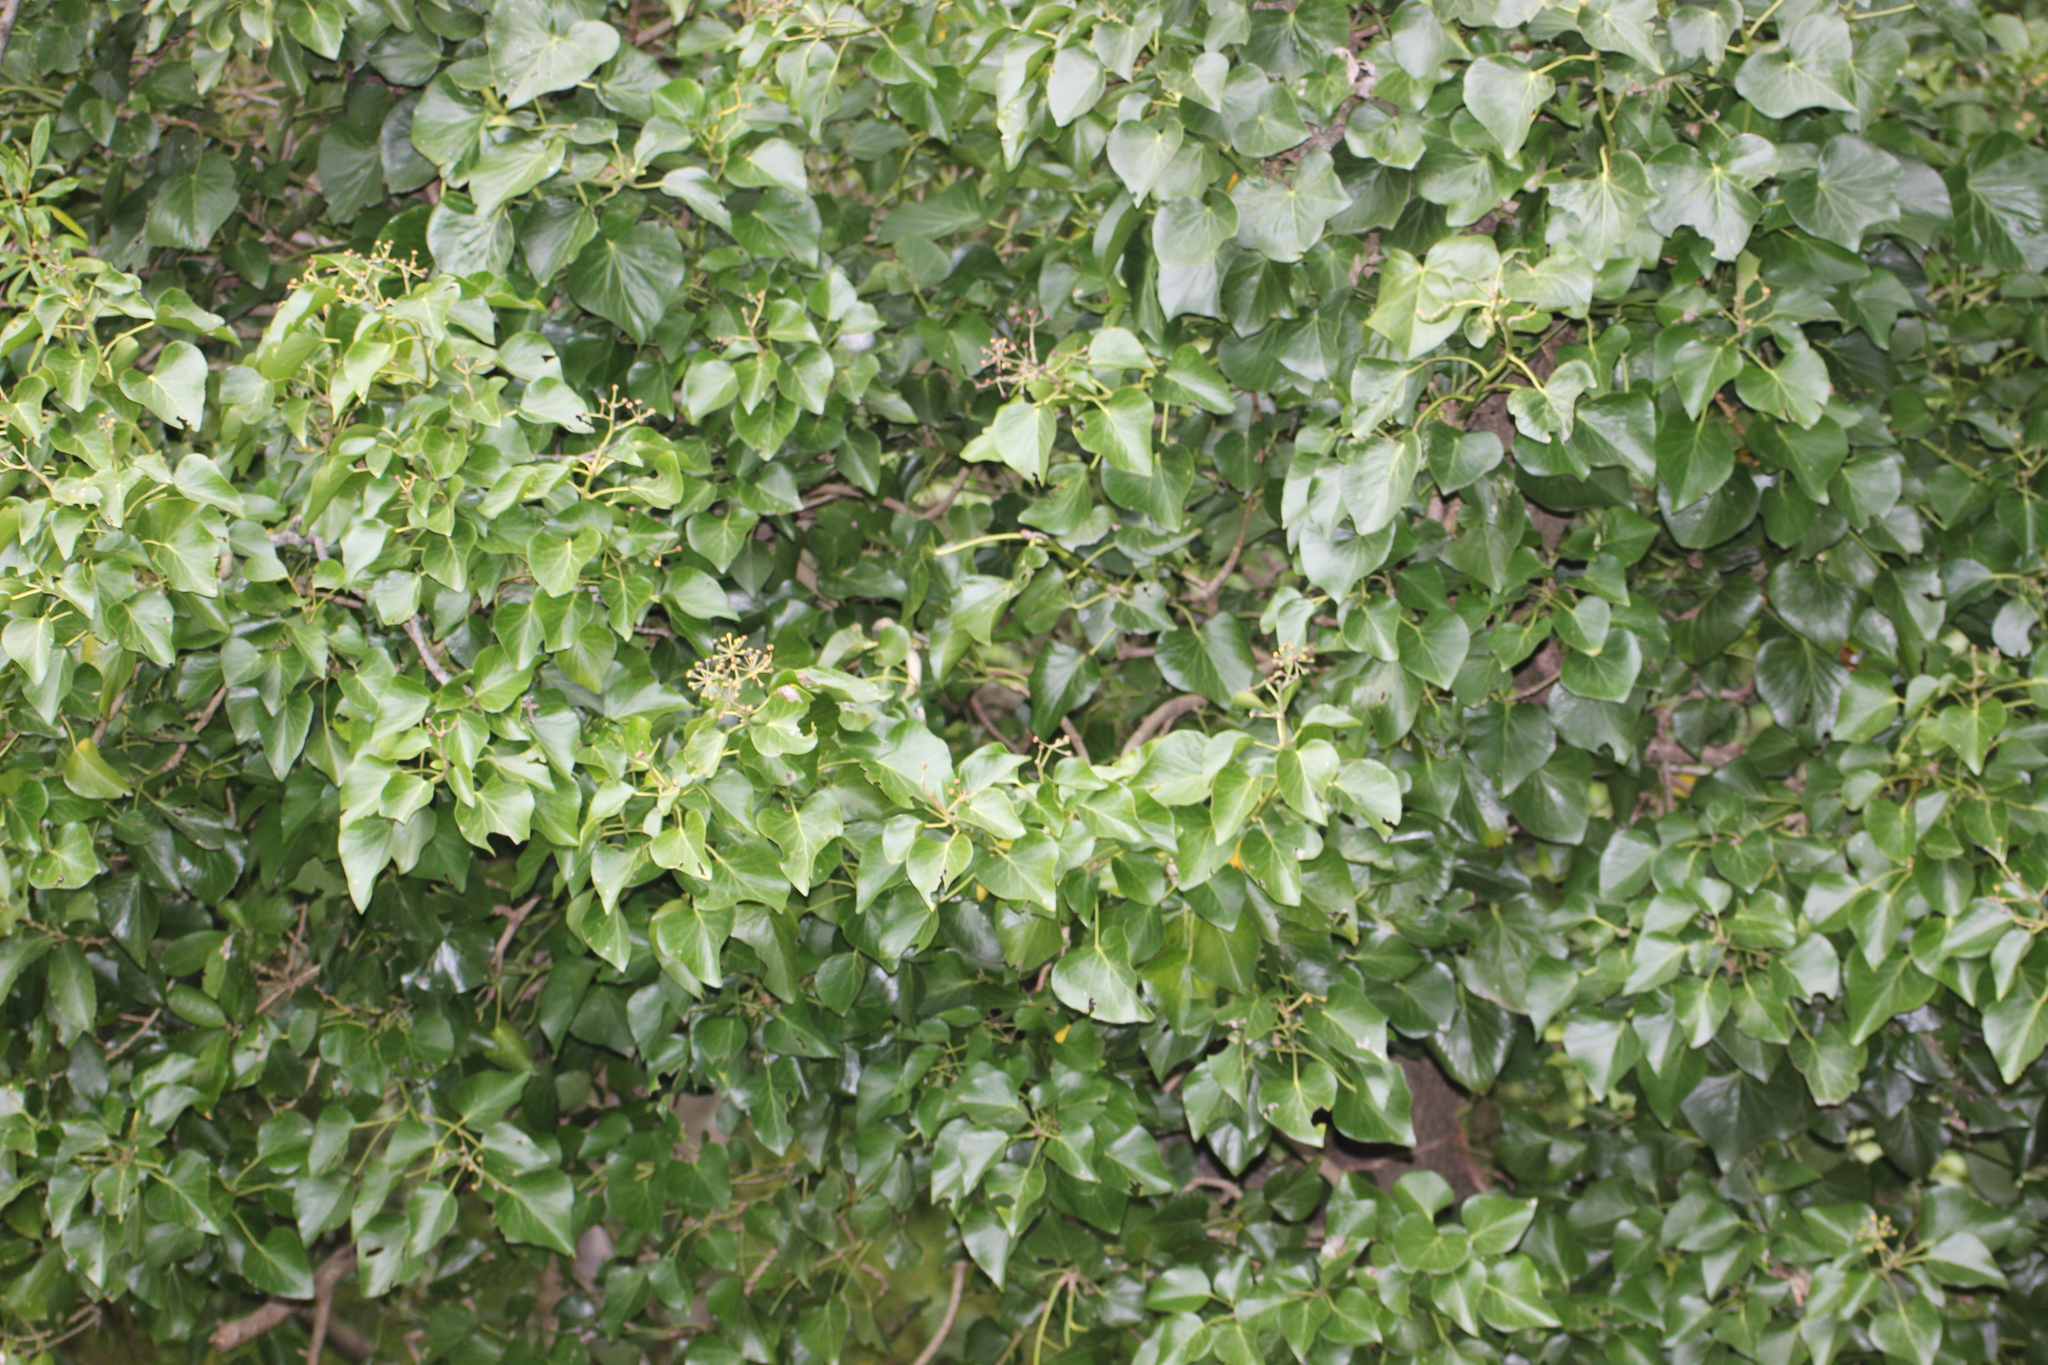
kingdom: Plantae
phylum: Tracheophyta
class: Magnoliopsida
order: Apiales
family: Araliaceae
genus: Hedera
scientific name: Hedera helix
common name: Ivy
